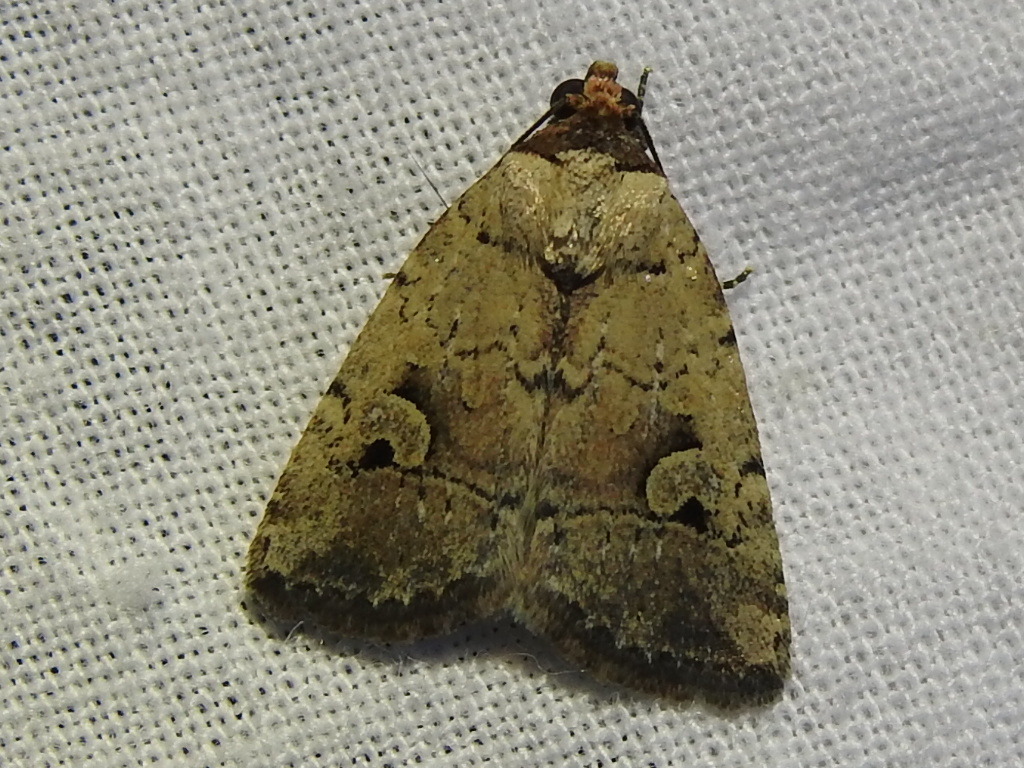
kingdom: Animalia
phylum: Arthropoda
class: Insecta
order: Lepidoptera
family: Noctuidae
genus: Elaphria
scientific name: Elaphria festivoides
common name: Festive midget
